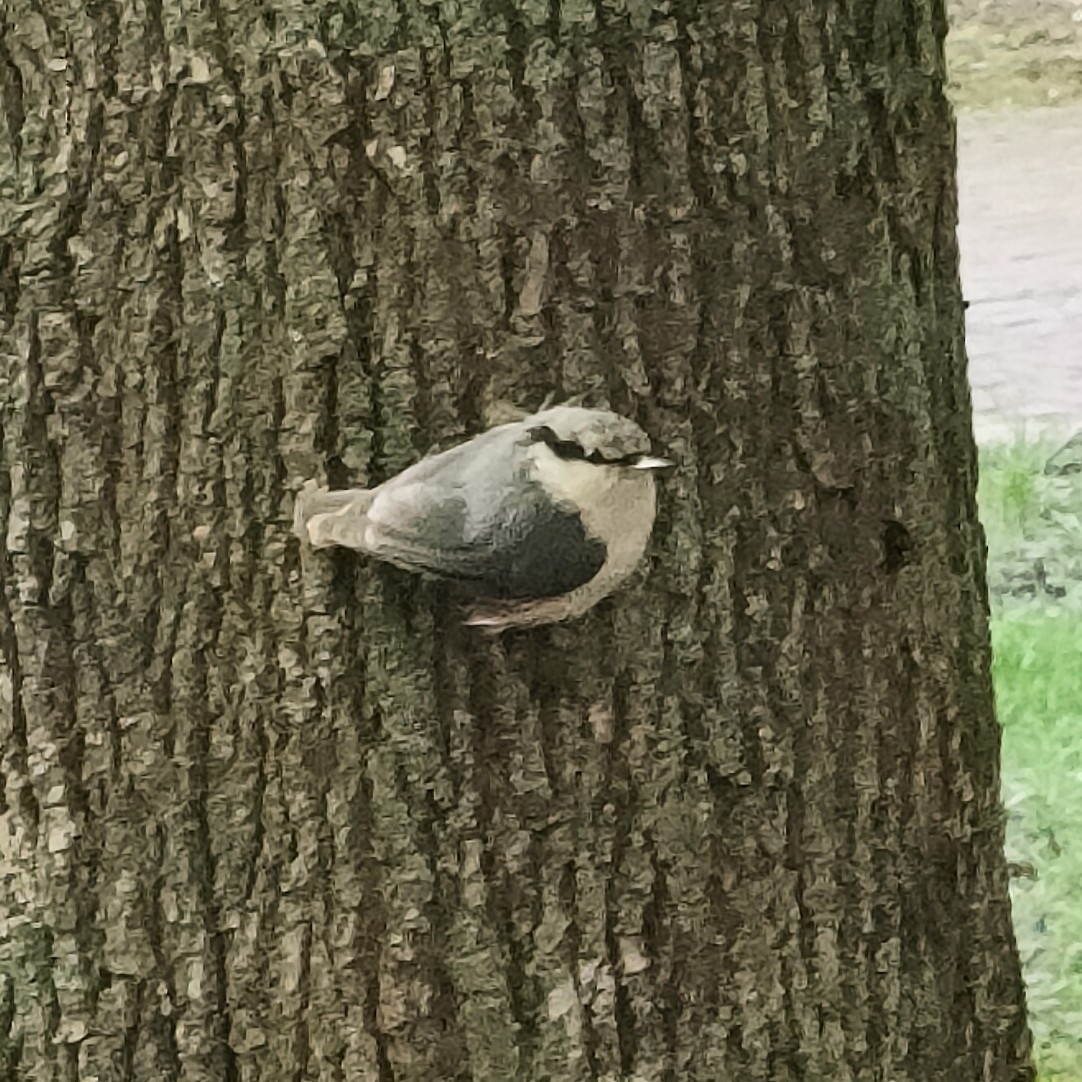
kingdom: Animalia
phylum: Chordata
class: Aves
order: Passeriformes
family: Sittidae
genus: Sitta
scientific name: Sitta europaea
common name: Eurasian nuthatch
